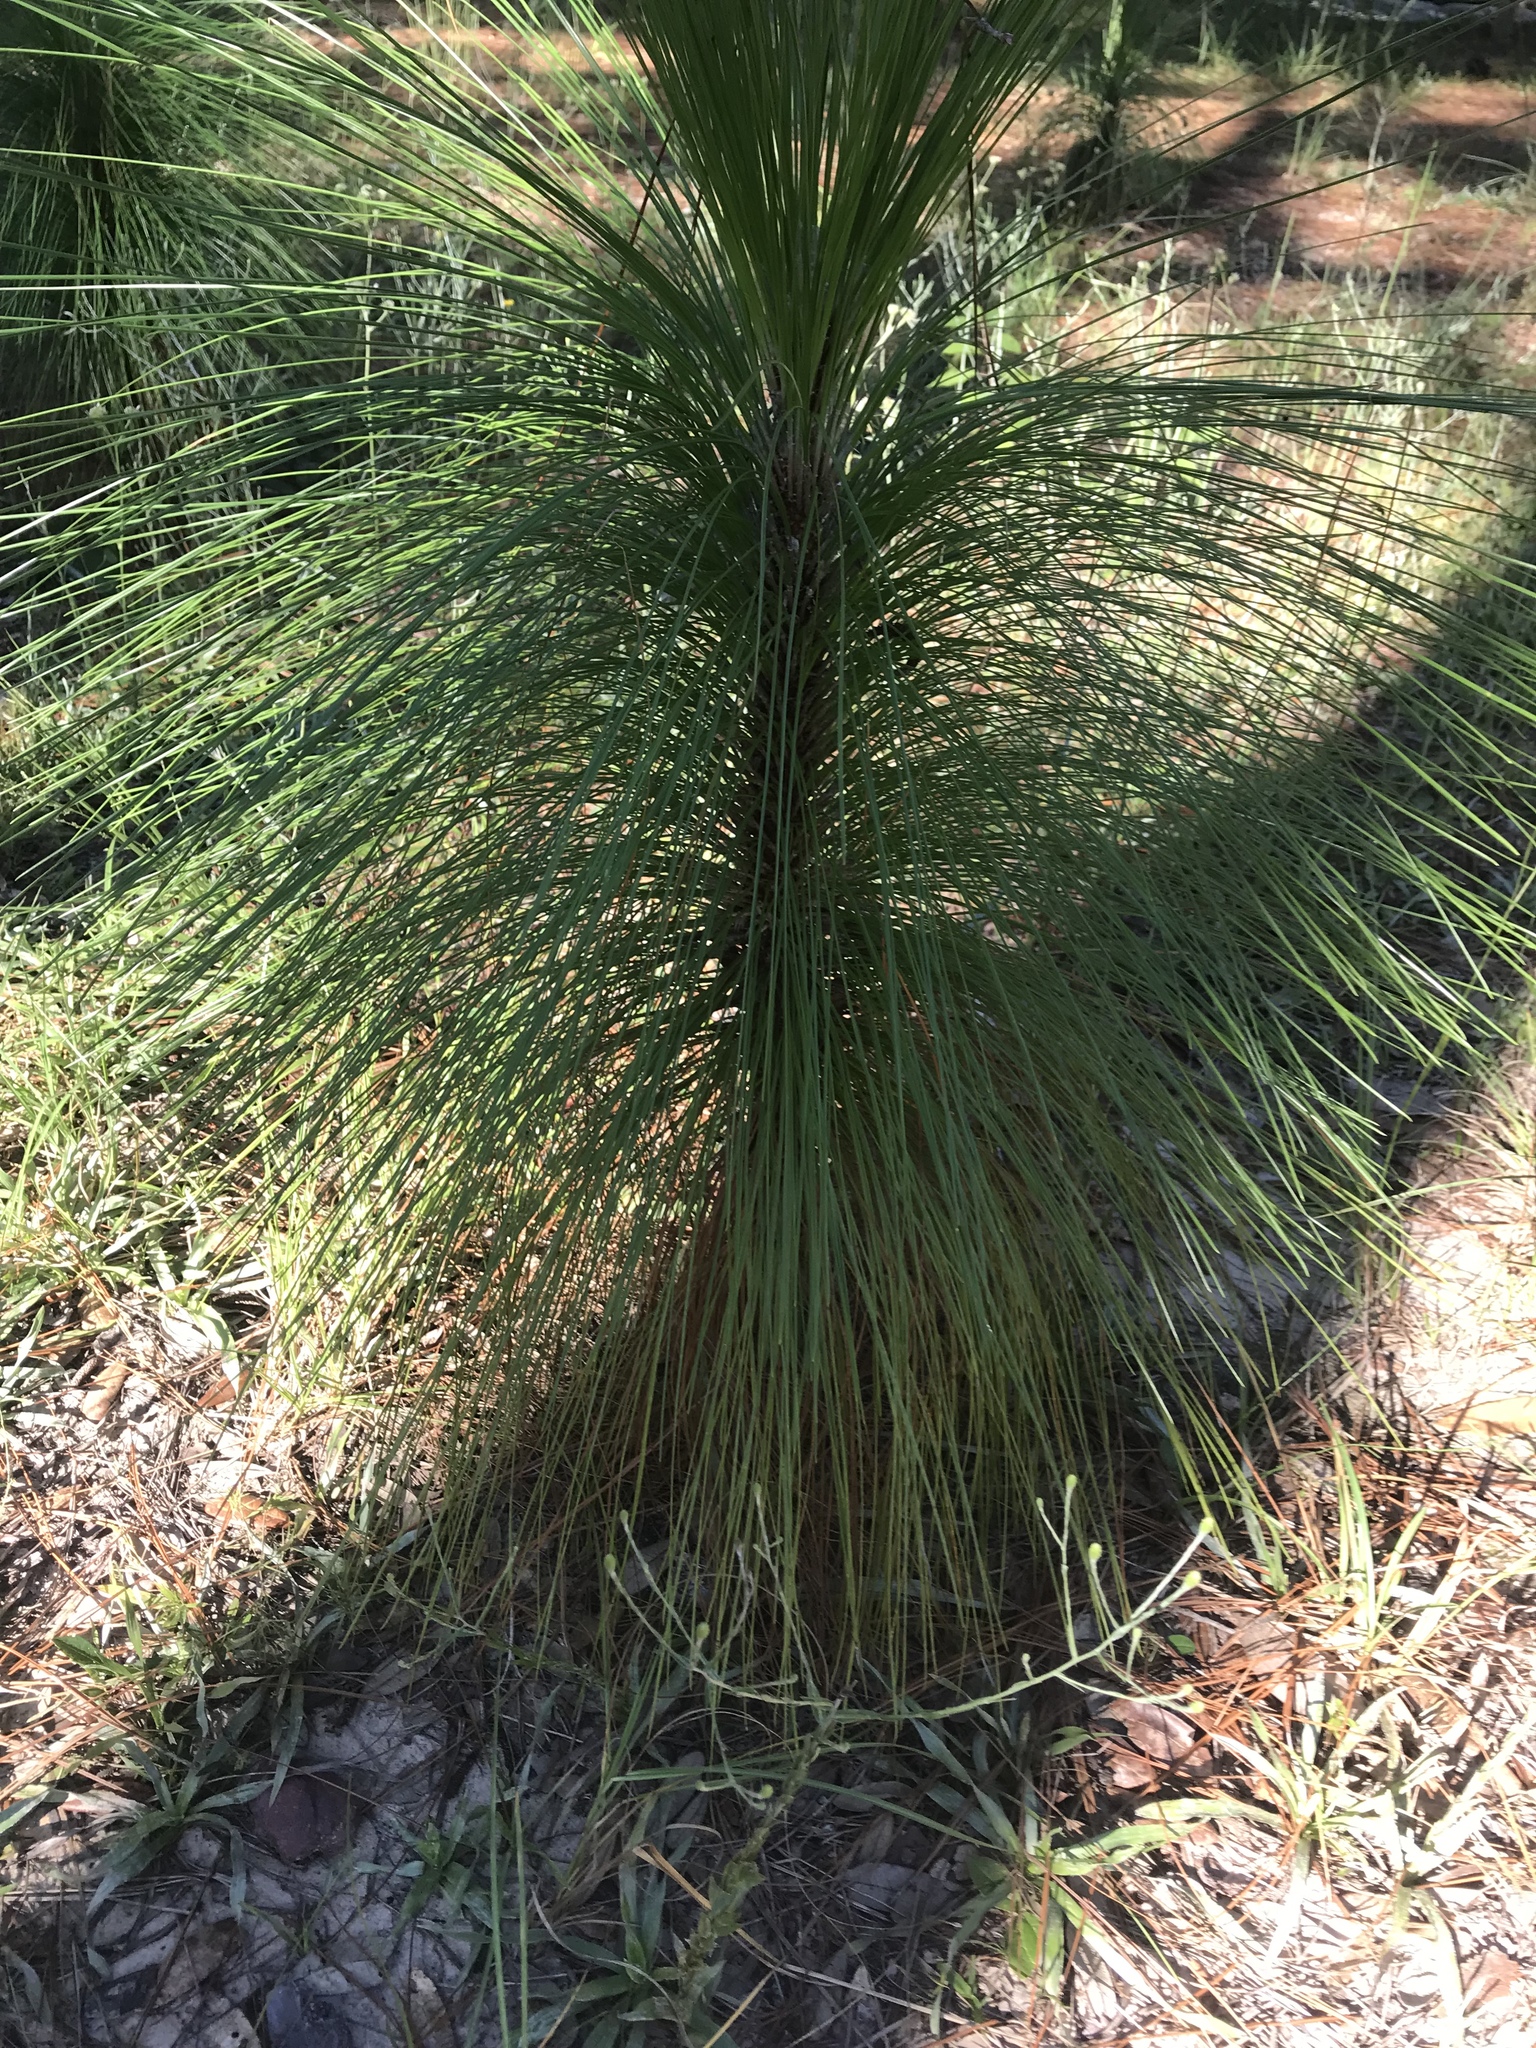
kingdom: Plantae
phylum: Tracheophyta
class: Pinopsida
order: Pinales
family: Pinaceae
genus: Pinus
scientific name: Pinus palustris
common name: Longleaf pine
